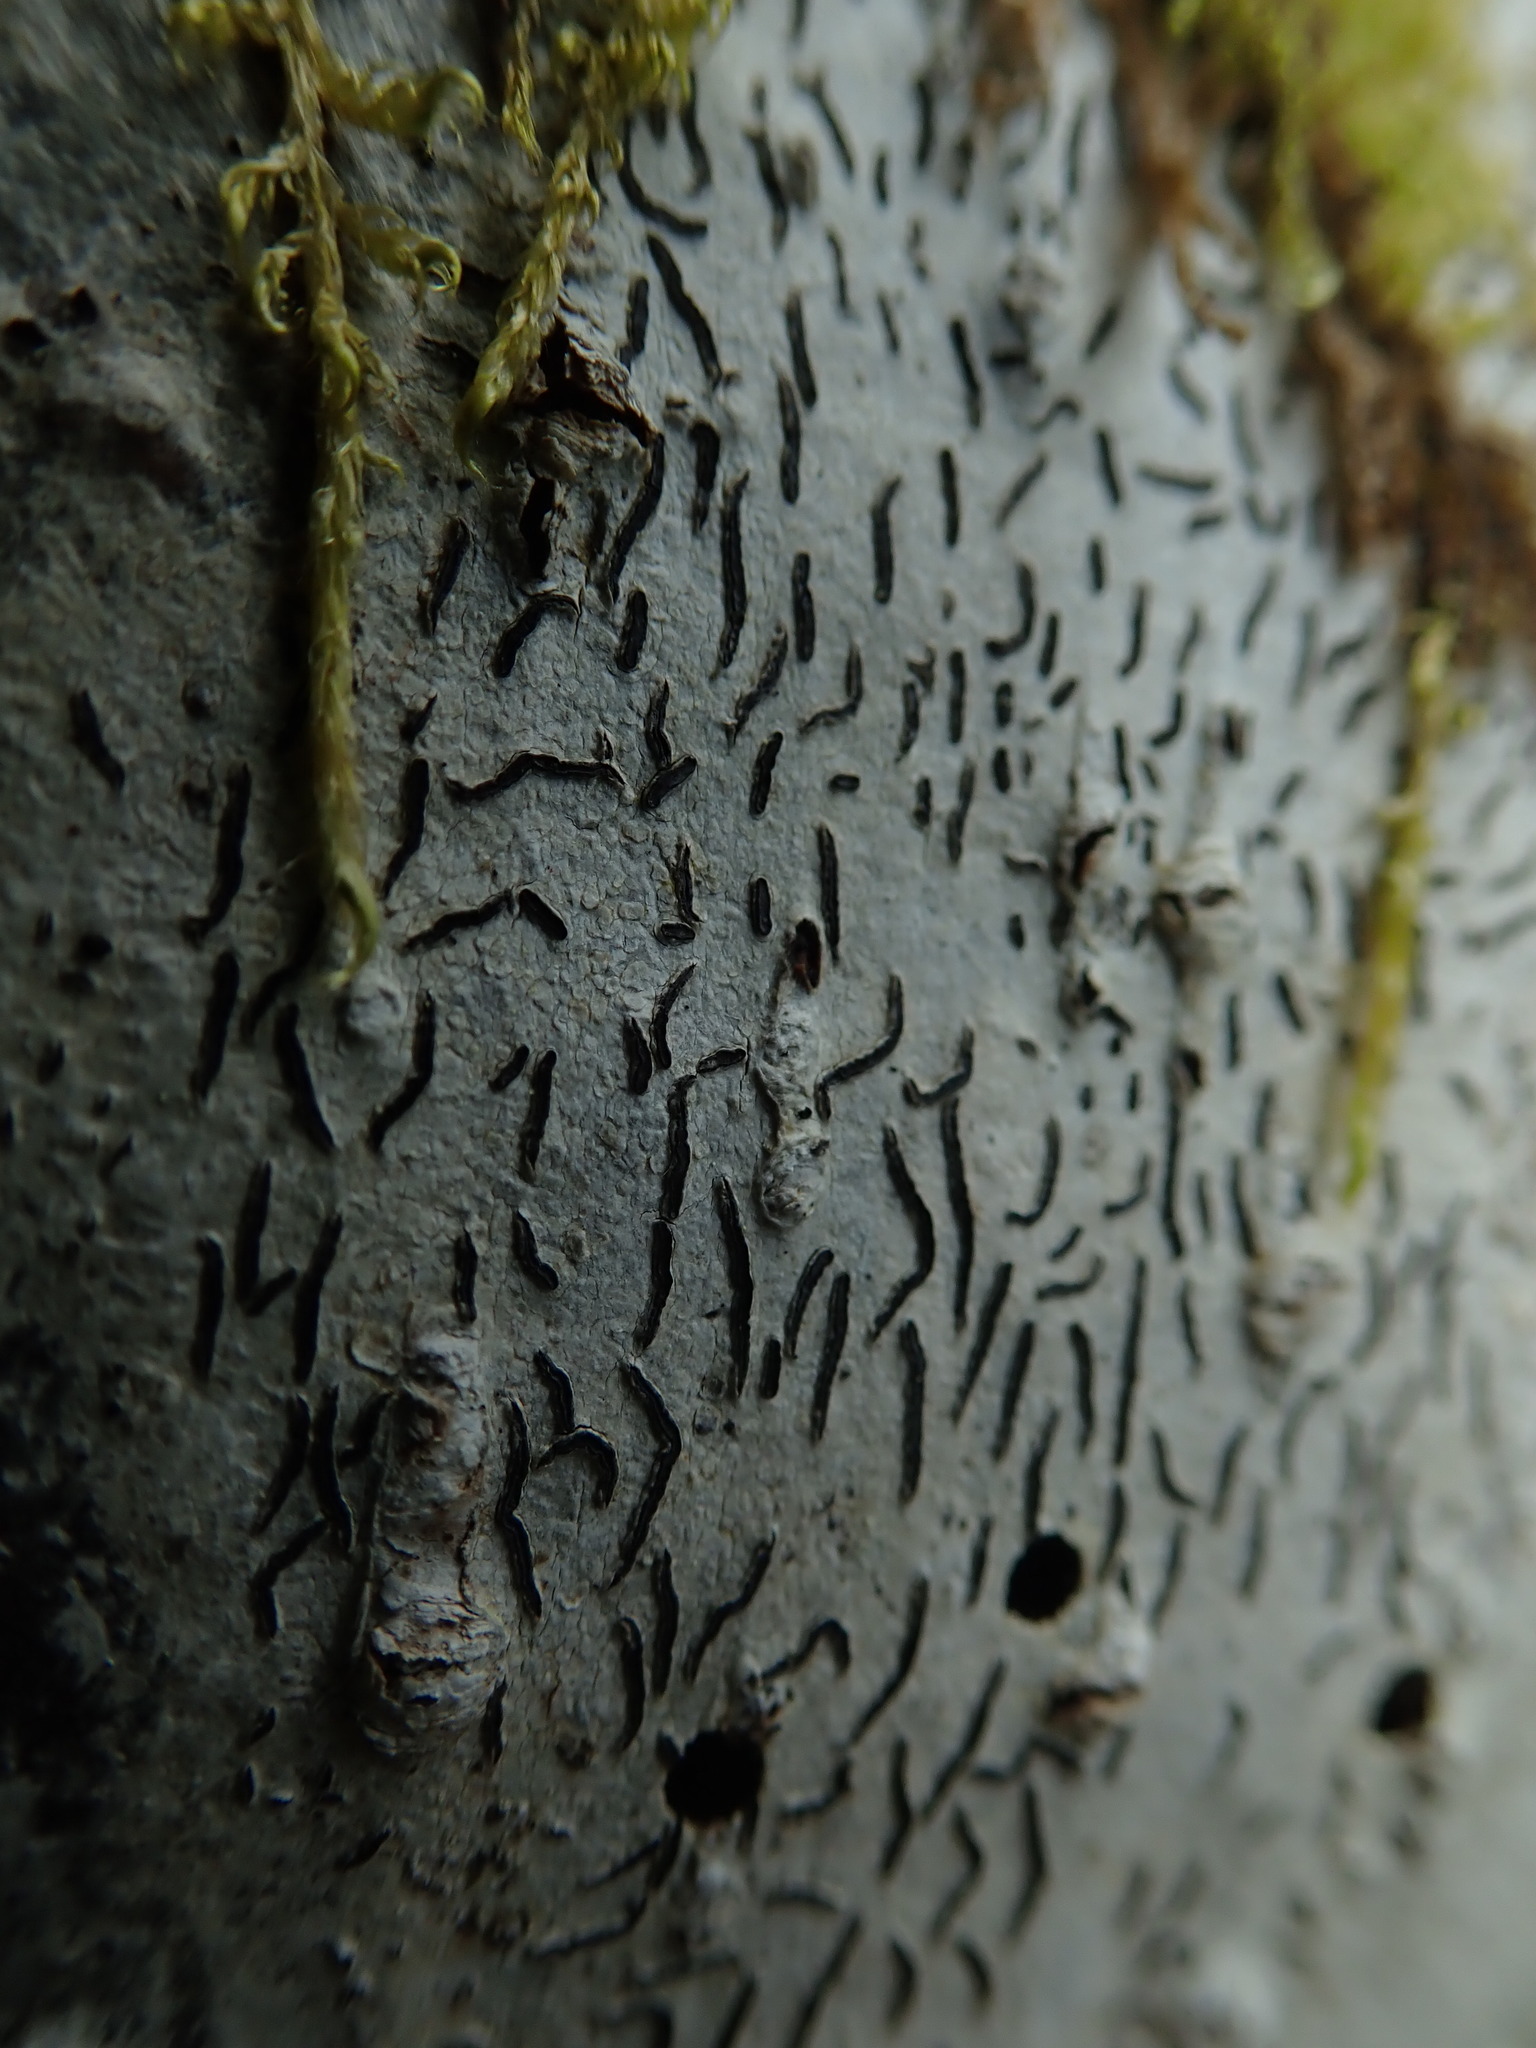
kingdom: Fungi
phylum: Ascomycota
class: Lecanoromycetes
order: Ostropales
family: Graphidaceae
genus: Graphis
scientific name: Graphis scripta
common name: Script lichen
